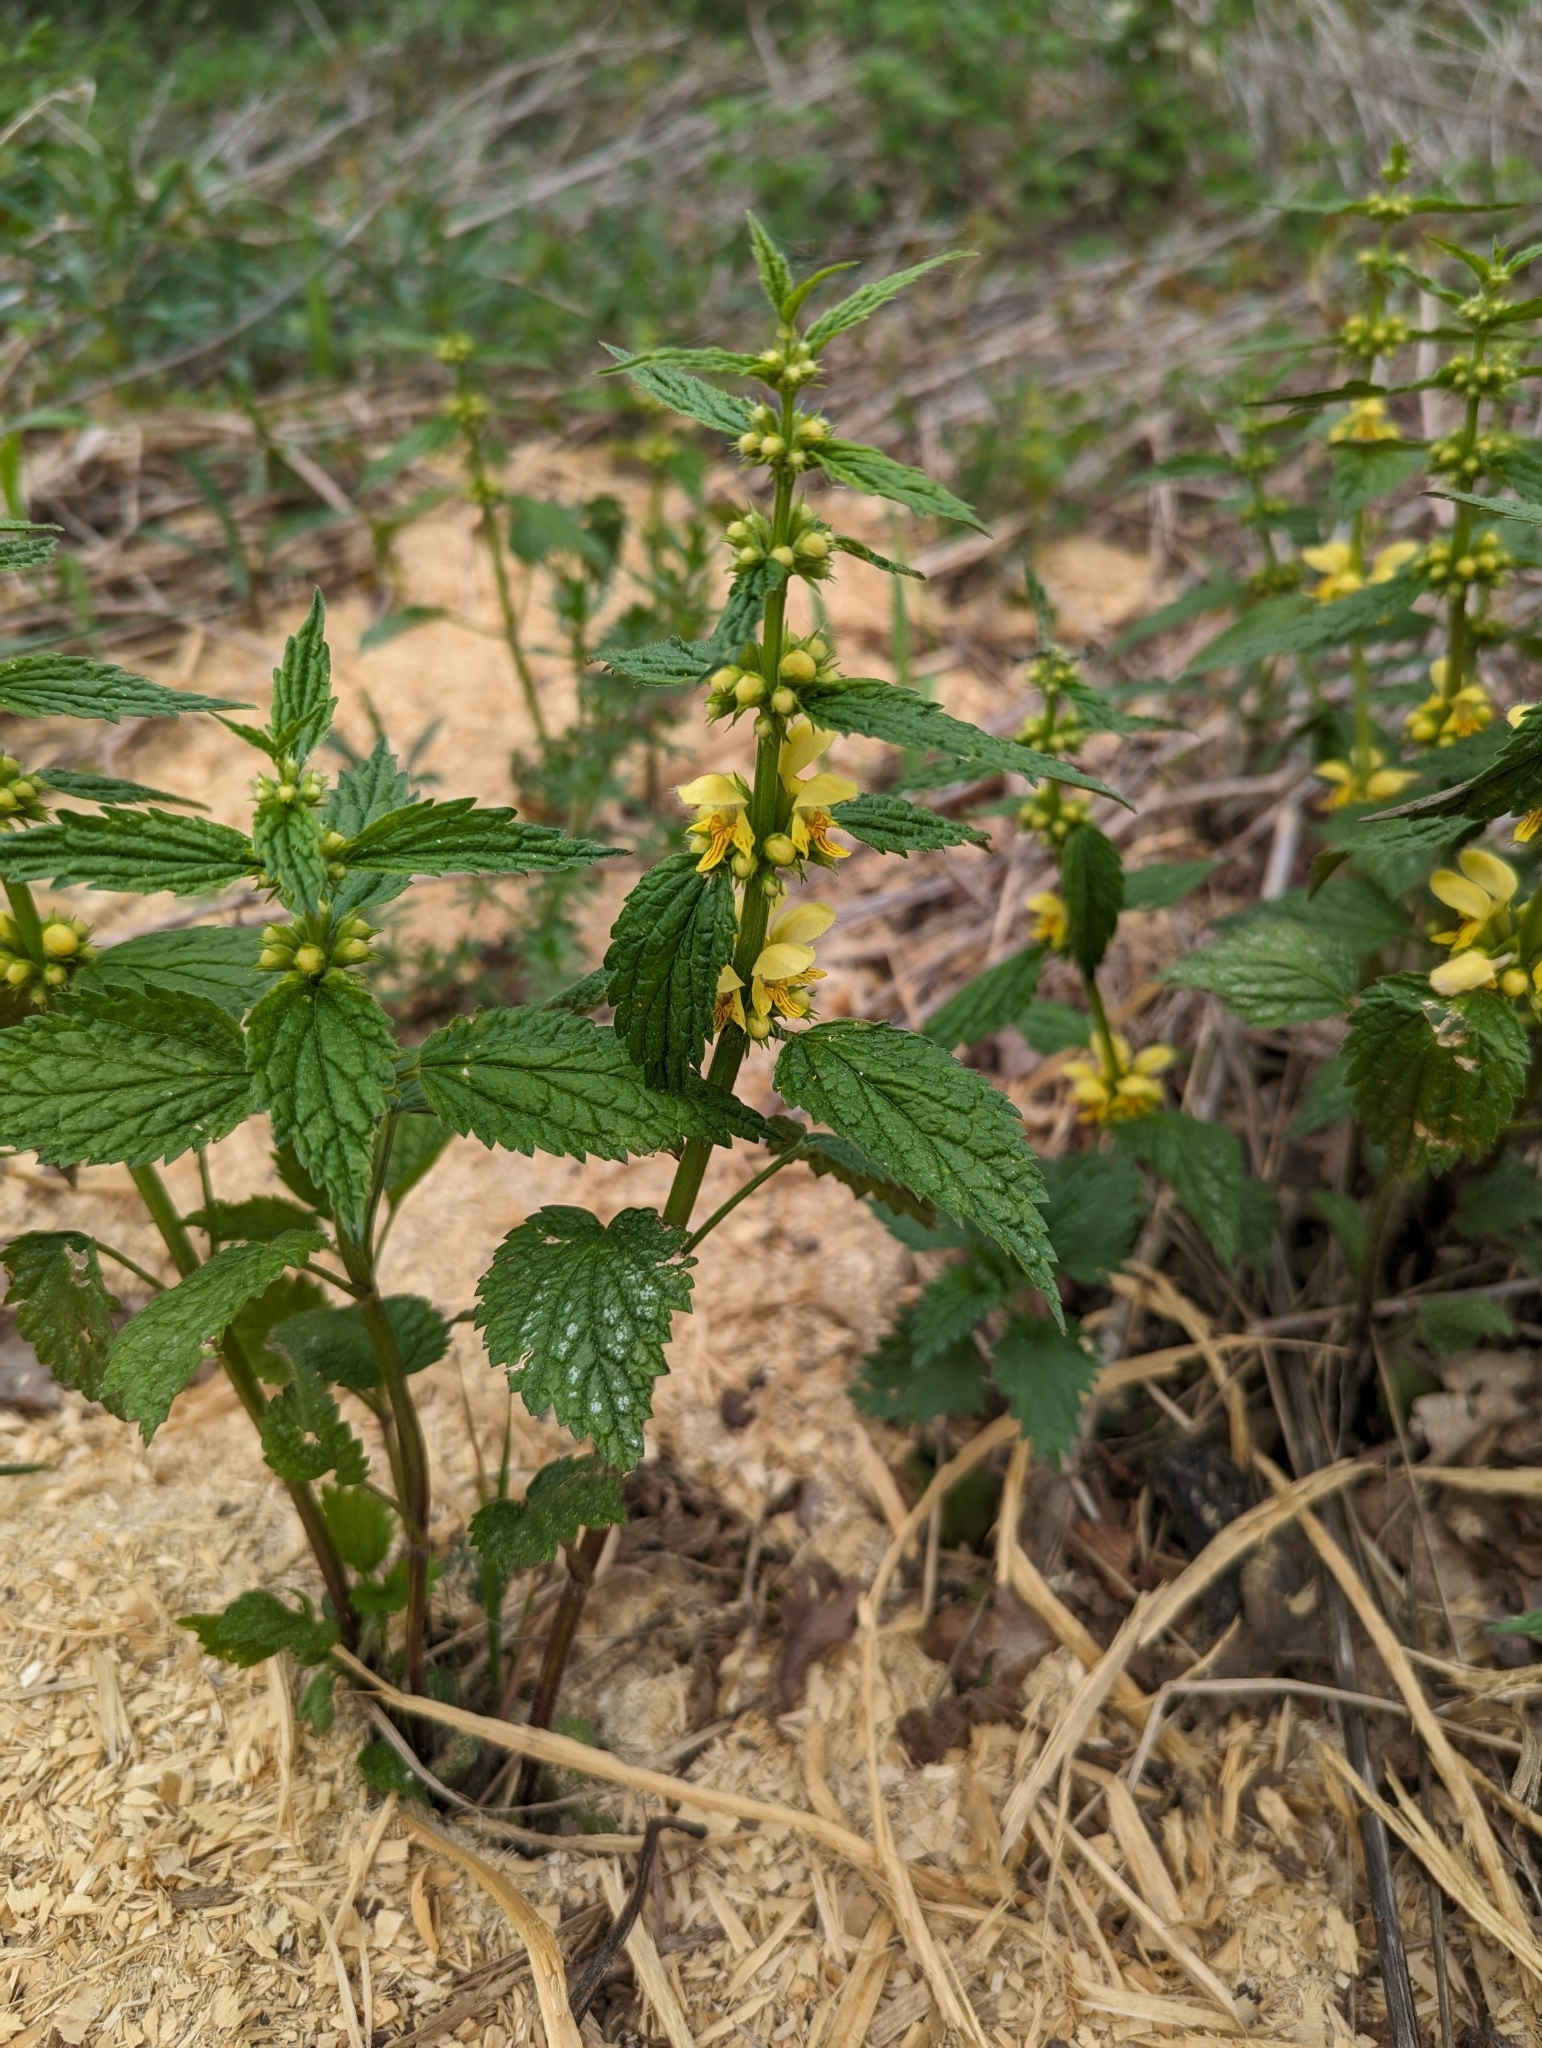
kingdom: Plantae
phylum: Tracheophyta
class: Magnoliopsida
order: Lamiales
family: Lamiaceae
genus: Lamium
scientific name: Lamium galeobdolon
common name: Yellow archangel
